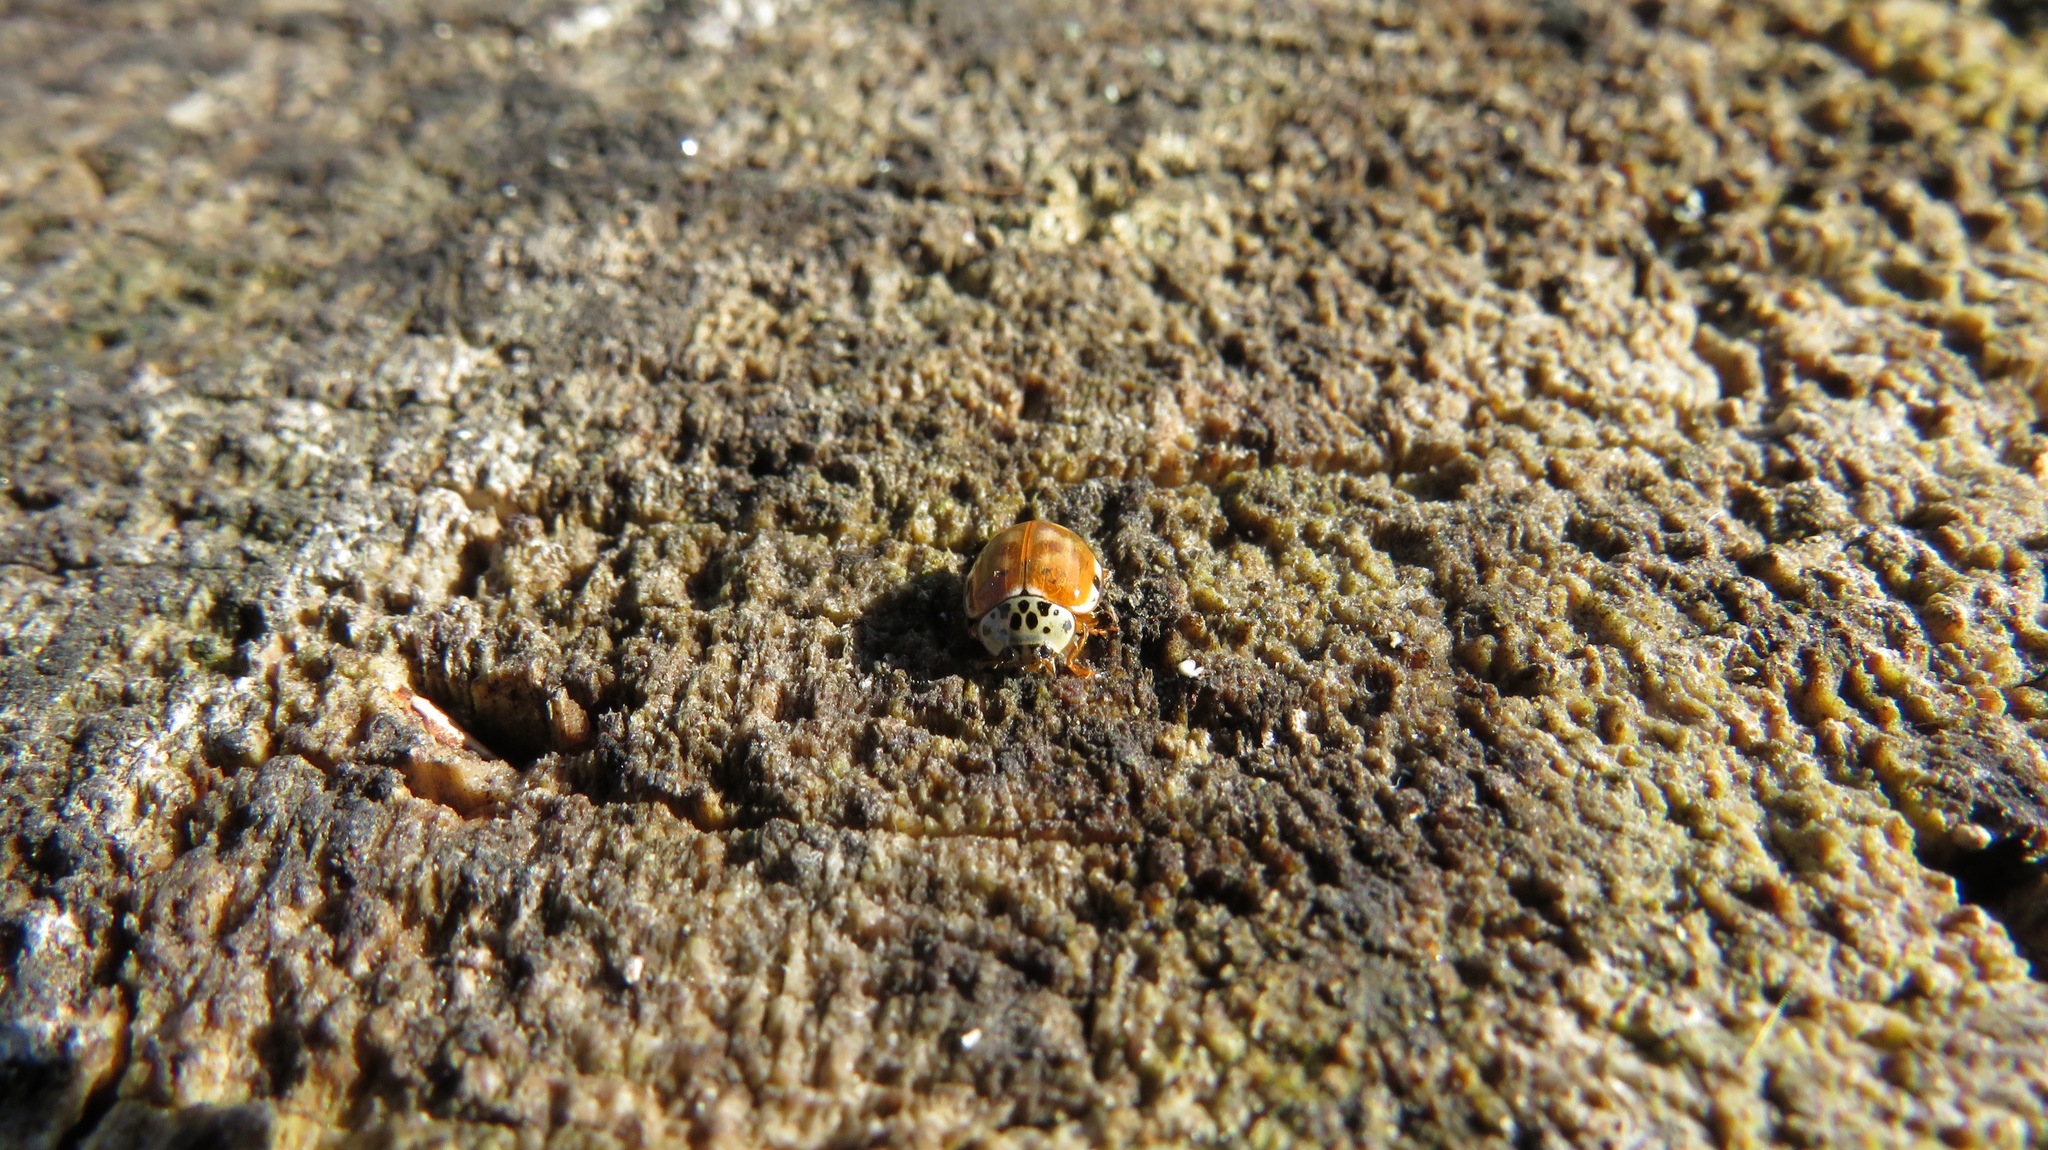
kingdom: Animalia
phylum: Arthropoda
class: Insecta
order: Coleoptera
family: Coccinellidae
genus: Harmonia
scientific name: Harmonia quadripunctata
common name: Cream-streaked ladybird
